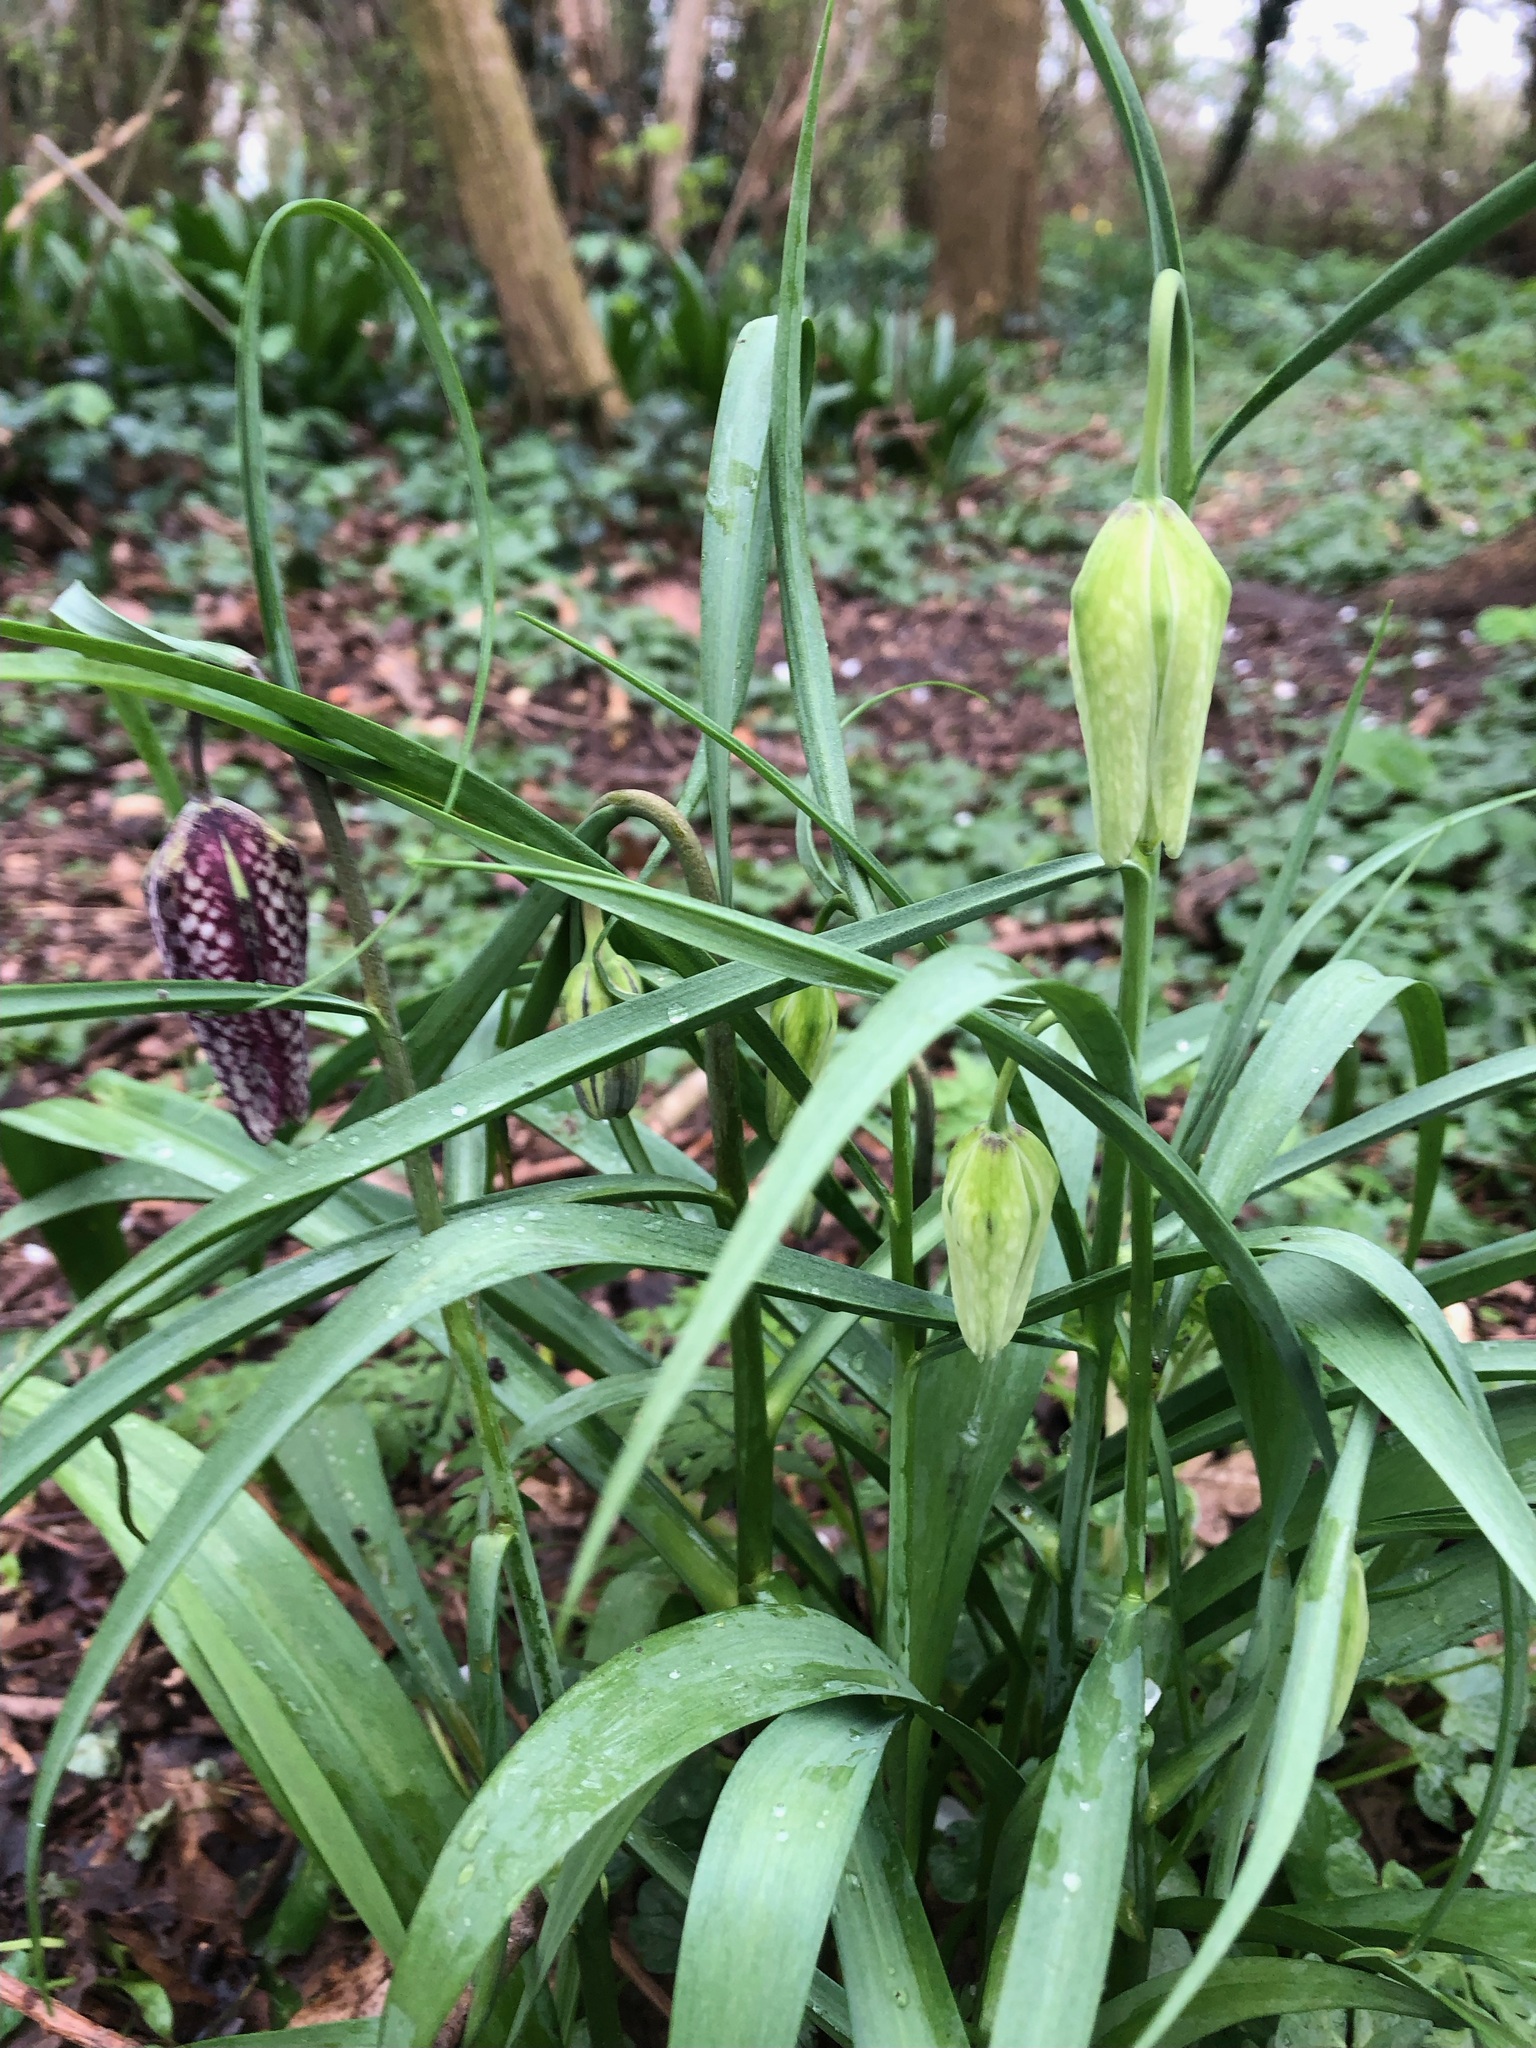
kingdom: Plantae
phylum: Tracheophyta
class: Liliopsida
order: Liliales
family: Liliaceae
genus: Fritillaria
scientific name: Fritillaria meleagris
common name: Fritillary
